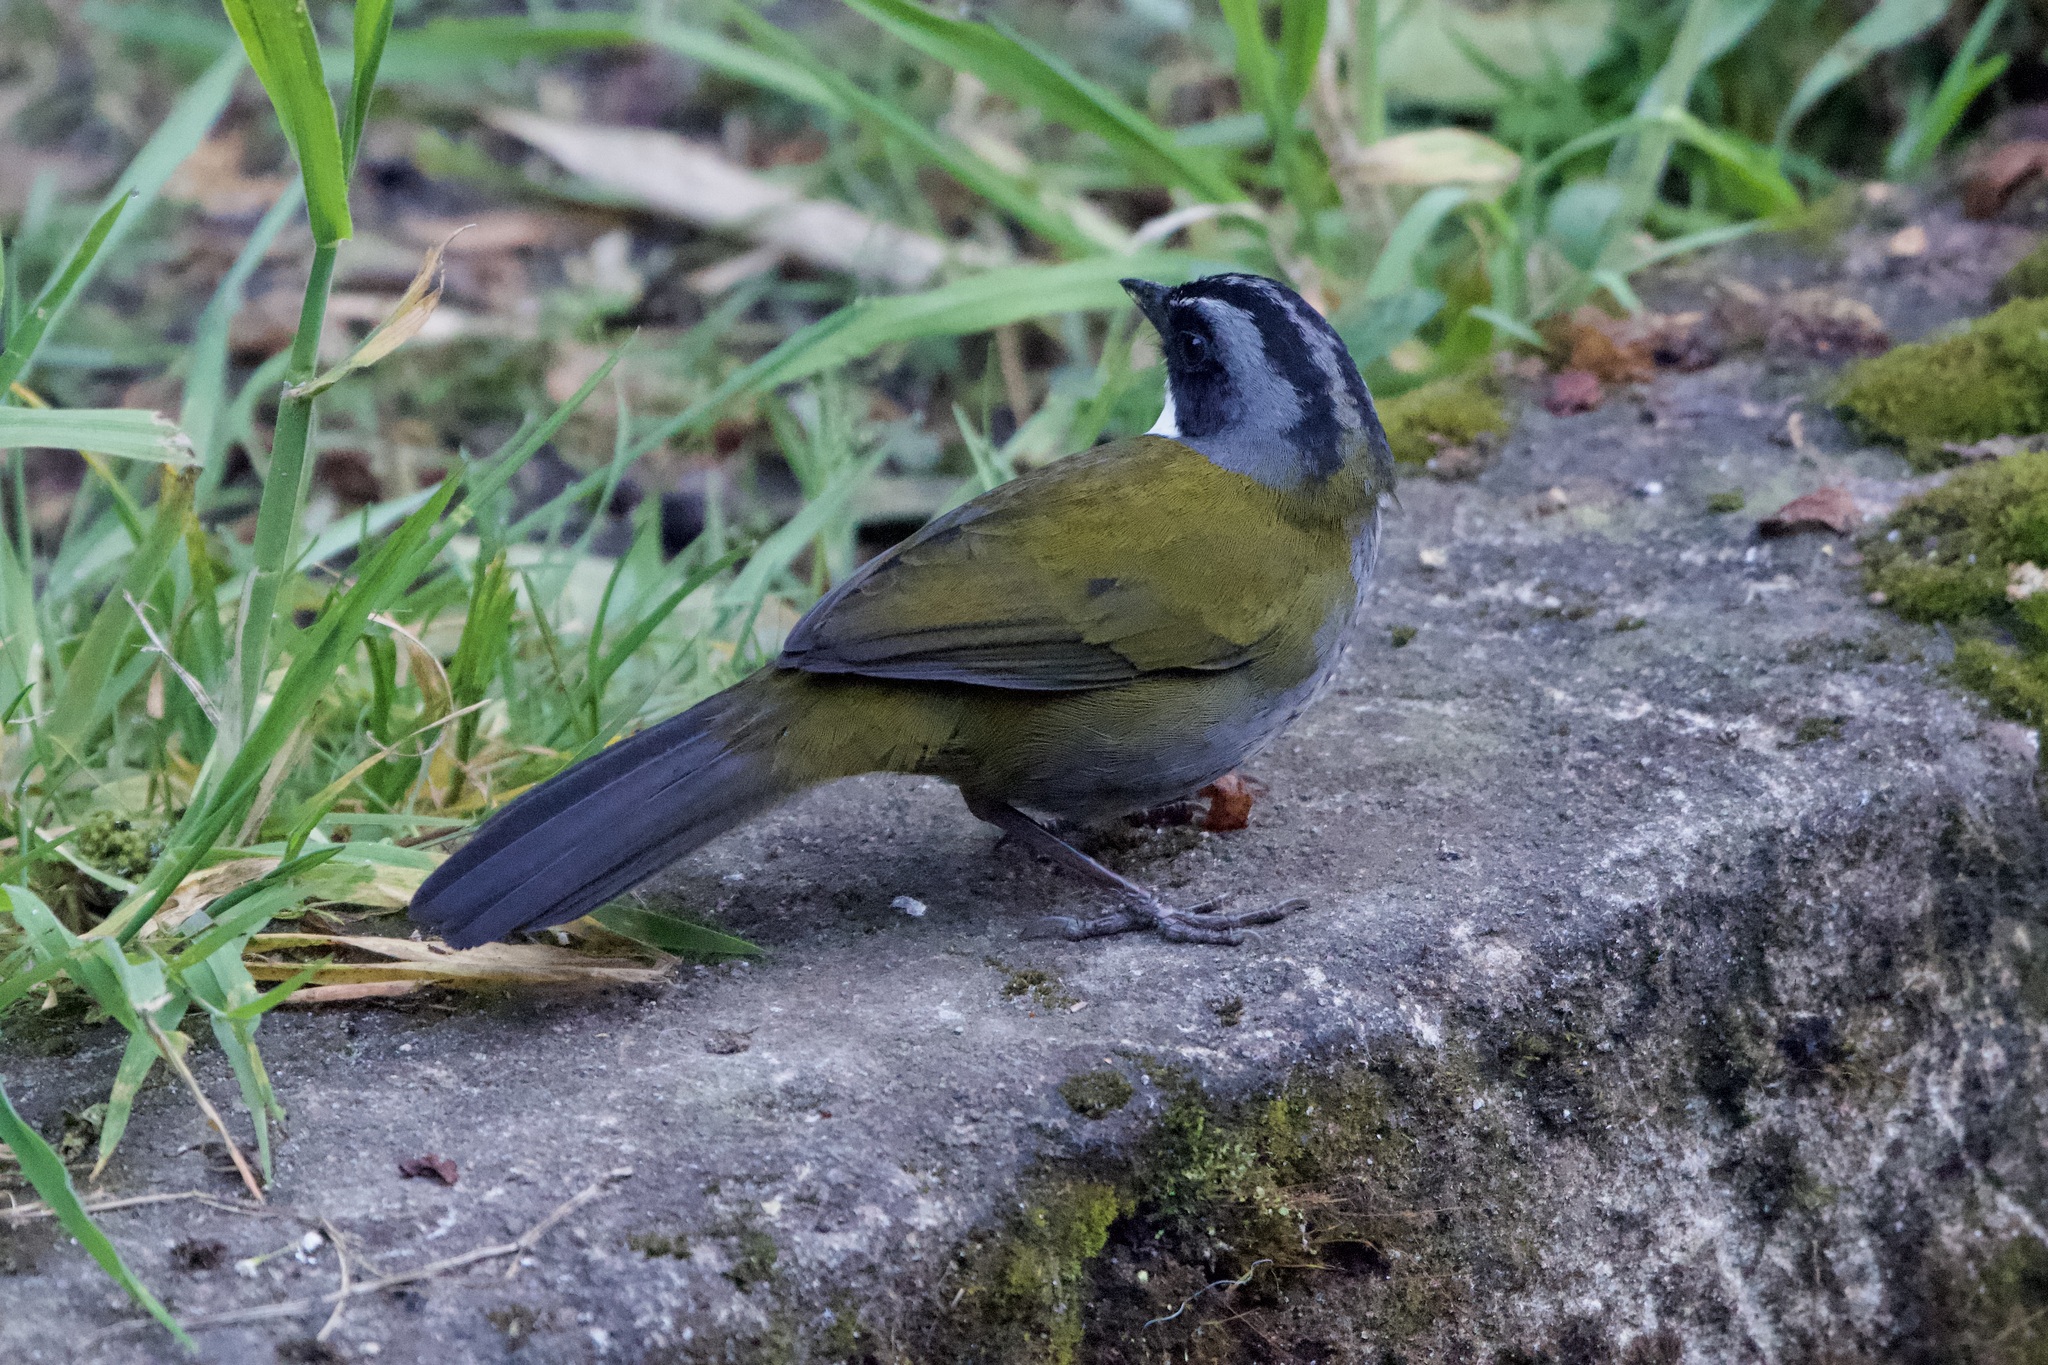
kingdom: Animalia
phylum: Chordata
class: Aves
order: Passeriformes
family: Passerellidae
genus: Arremon
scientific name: Arremon assimilis
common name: Grey-browed brushfinch
